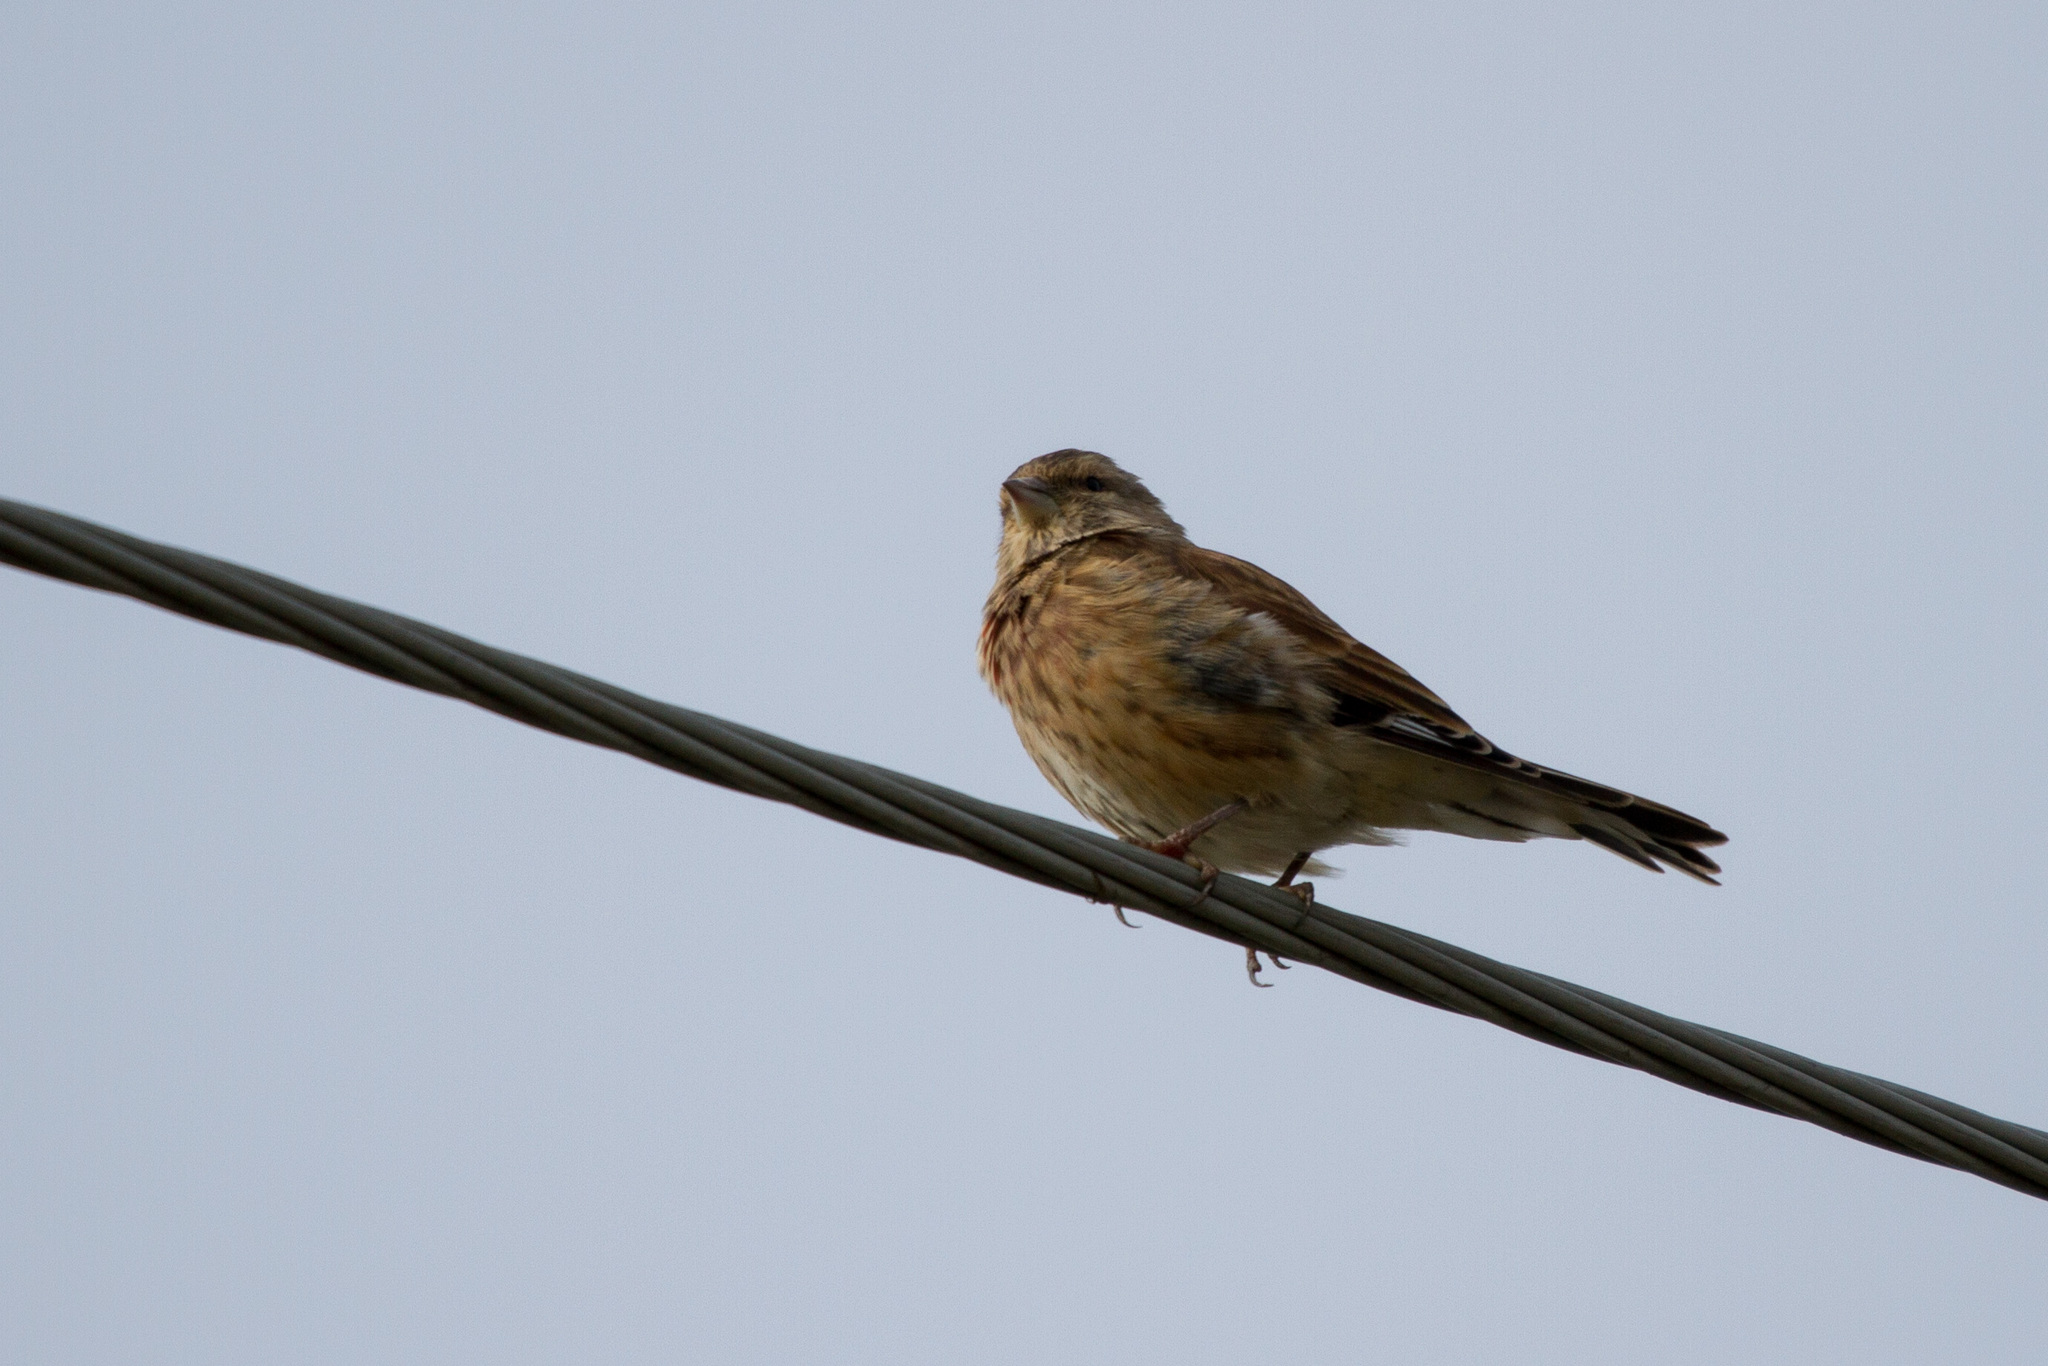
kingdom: Animalia
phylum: Chordata
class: Aves
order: Passeriformes
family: Fringillidae
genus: Linaria
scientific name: Linaria cannabina
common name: Common linnet
